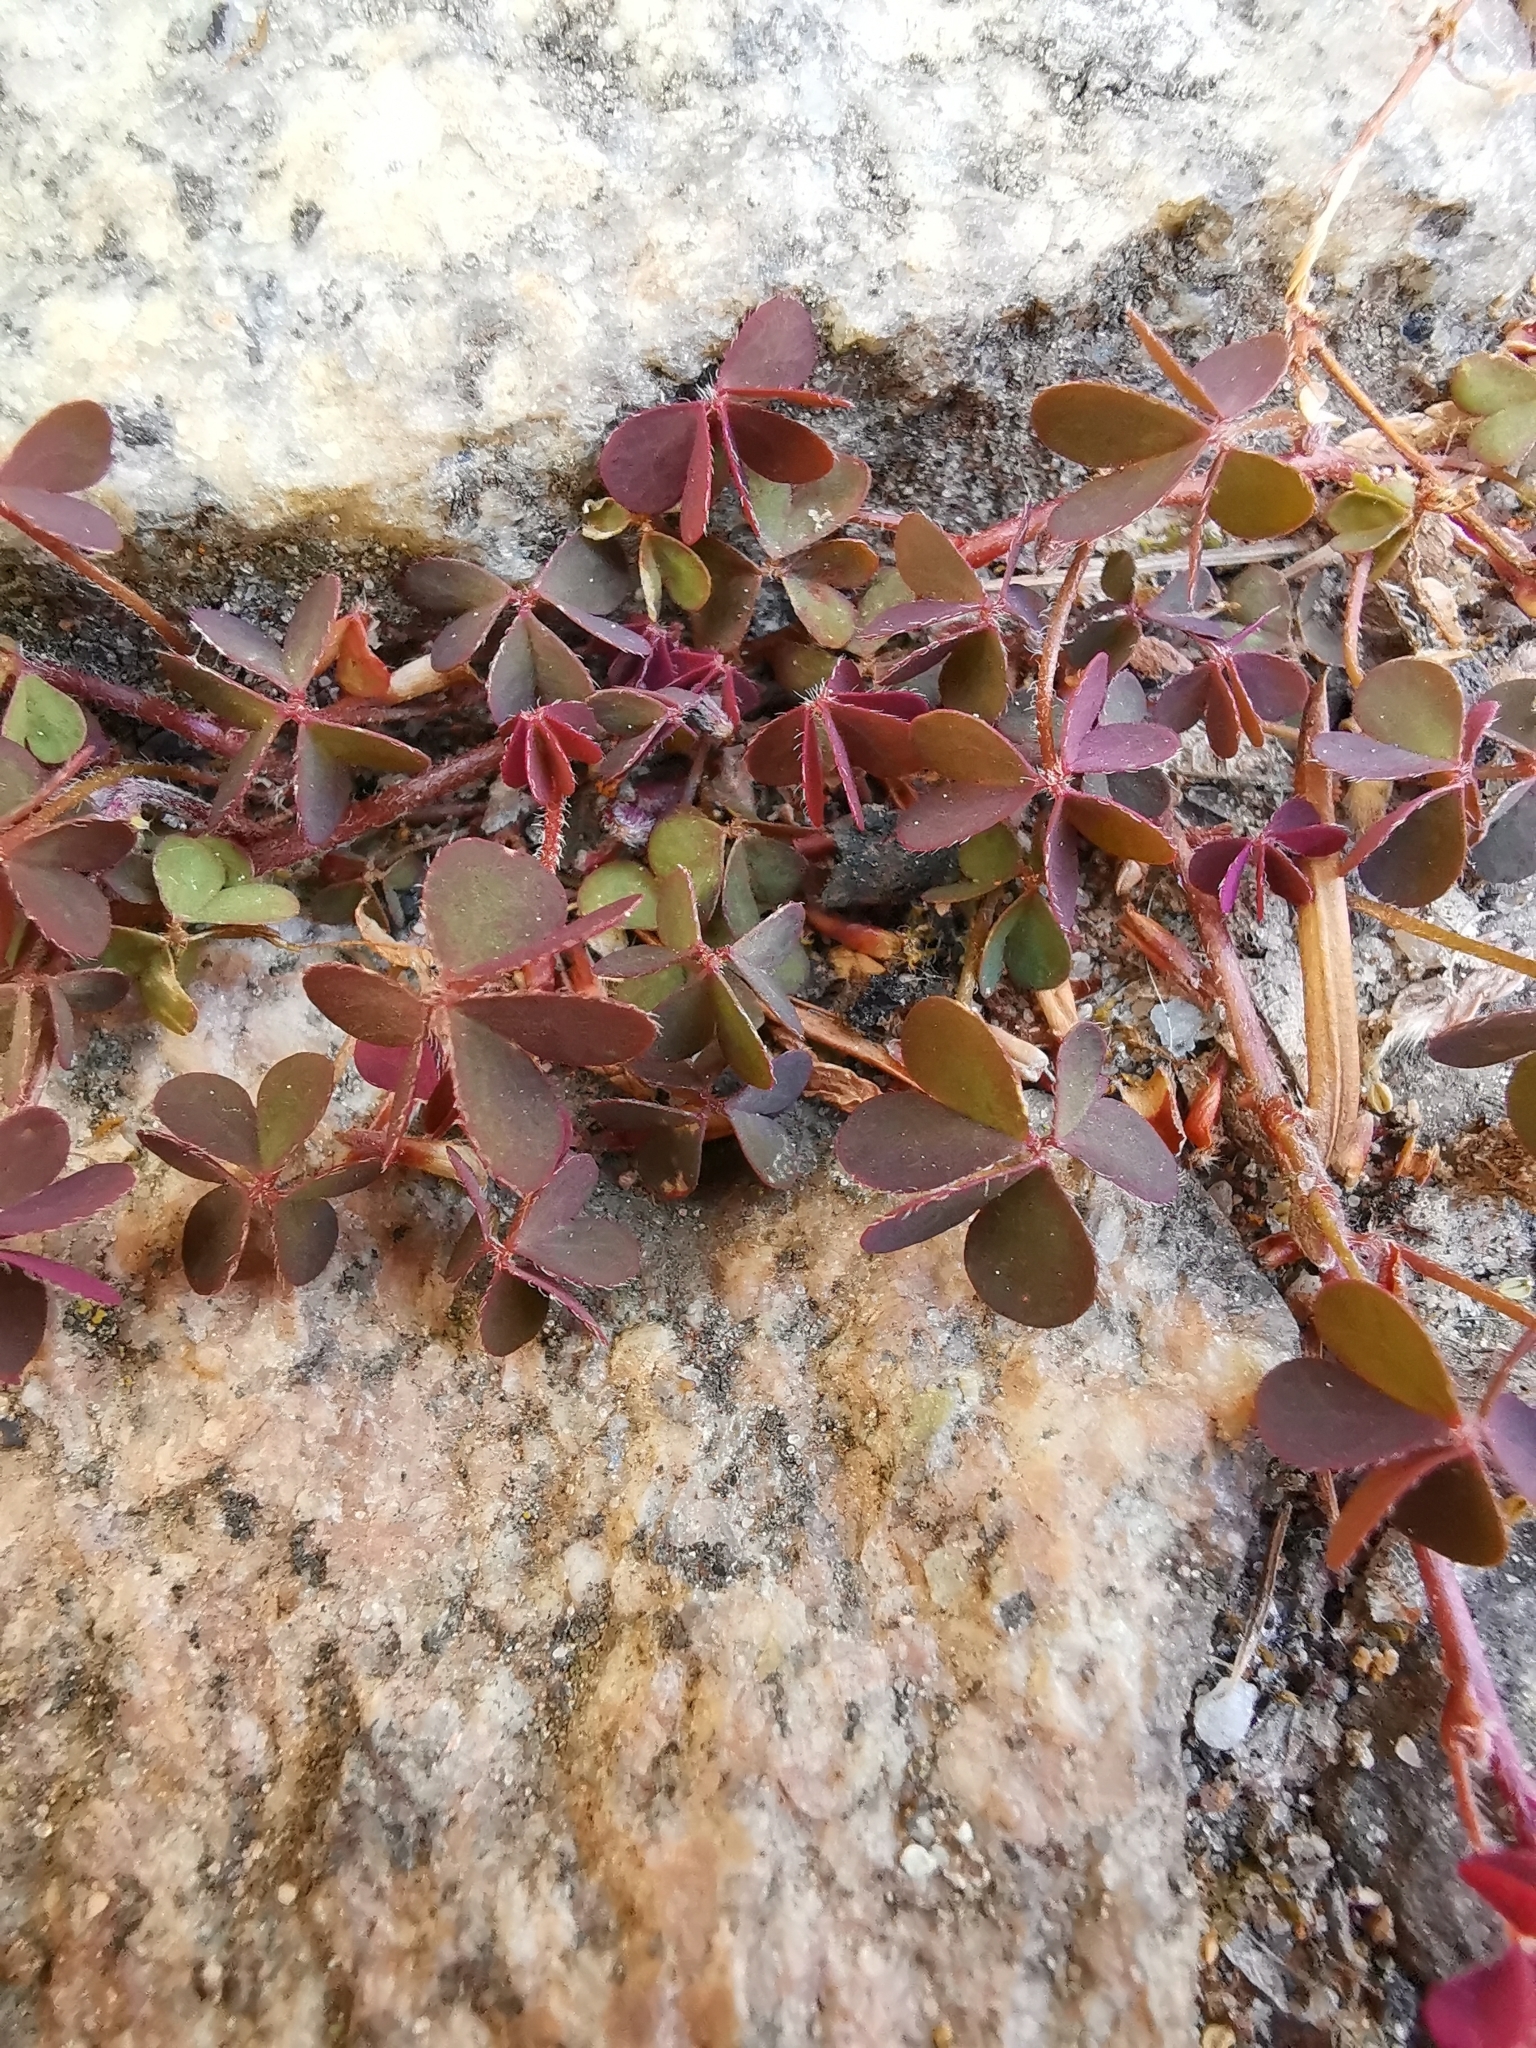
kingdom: Plantae
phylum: Tracheophyta
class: Magnoliopsida
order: Oxalidales
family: Oxalidaceae
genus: Oxalis
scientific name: Oxalis corniculata
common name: Procumbent yellow-sorrel
